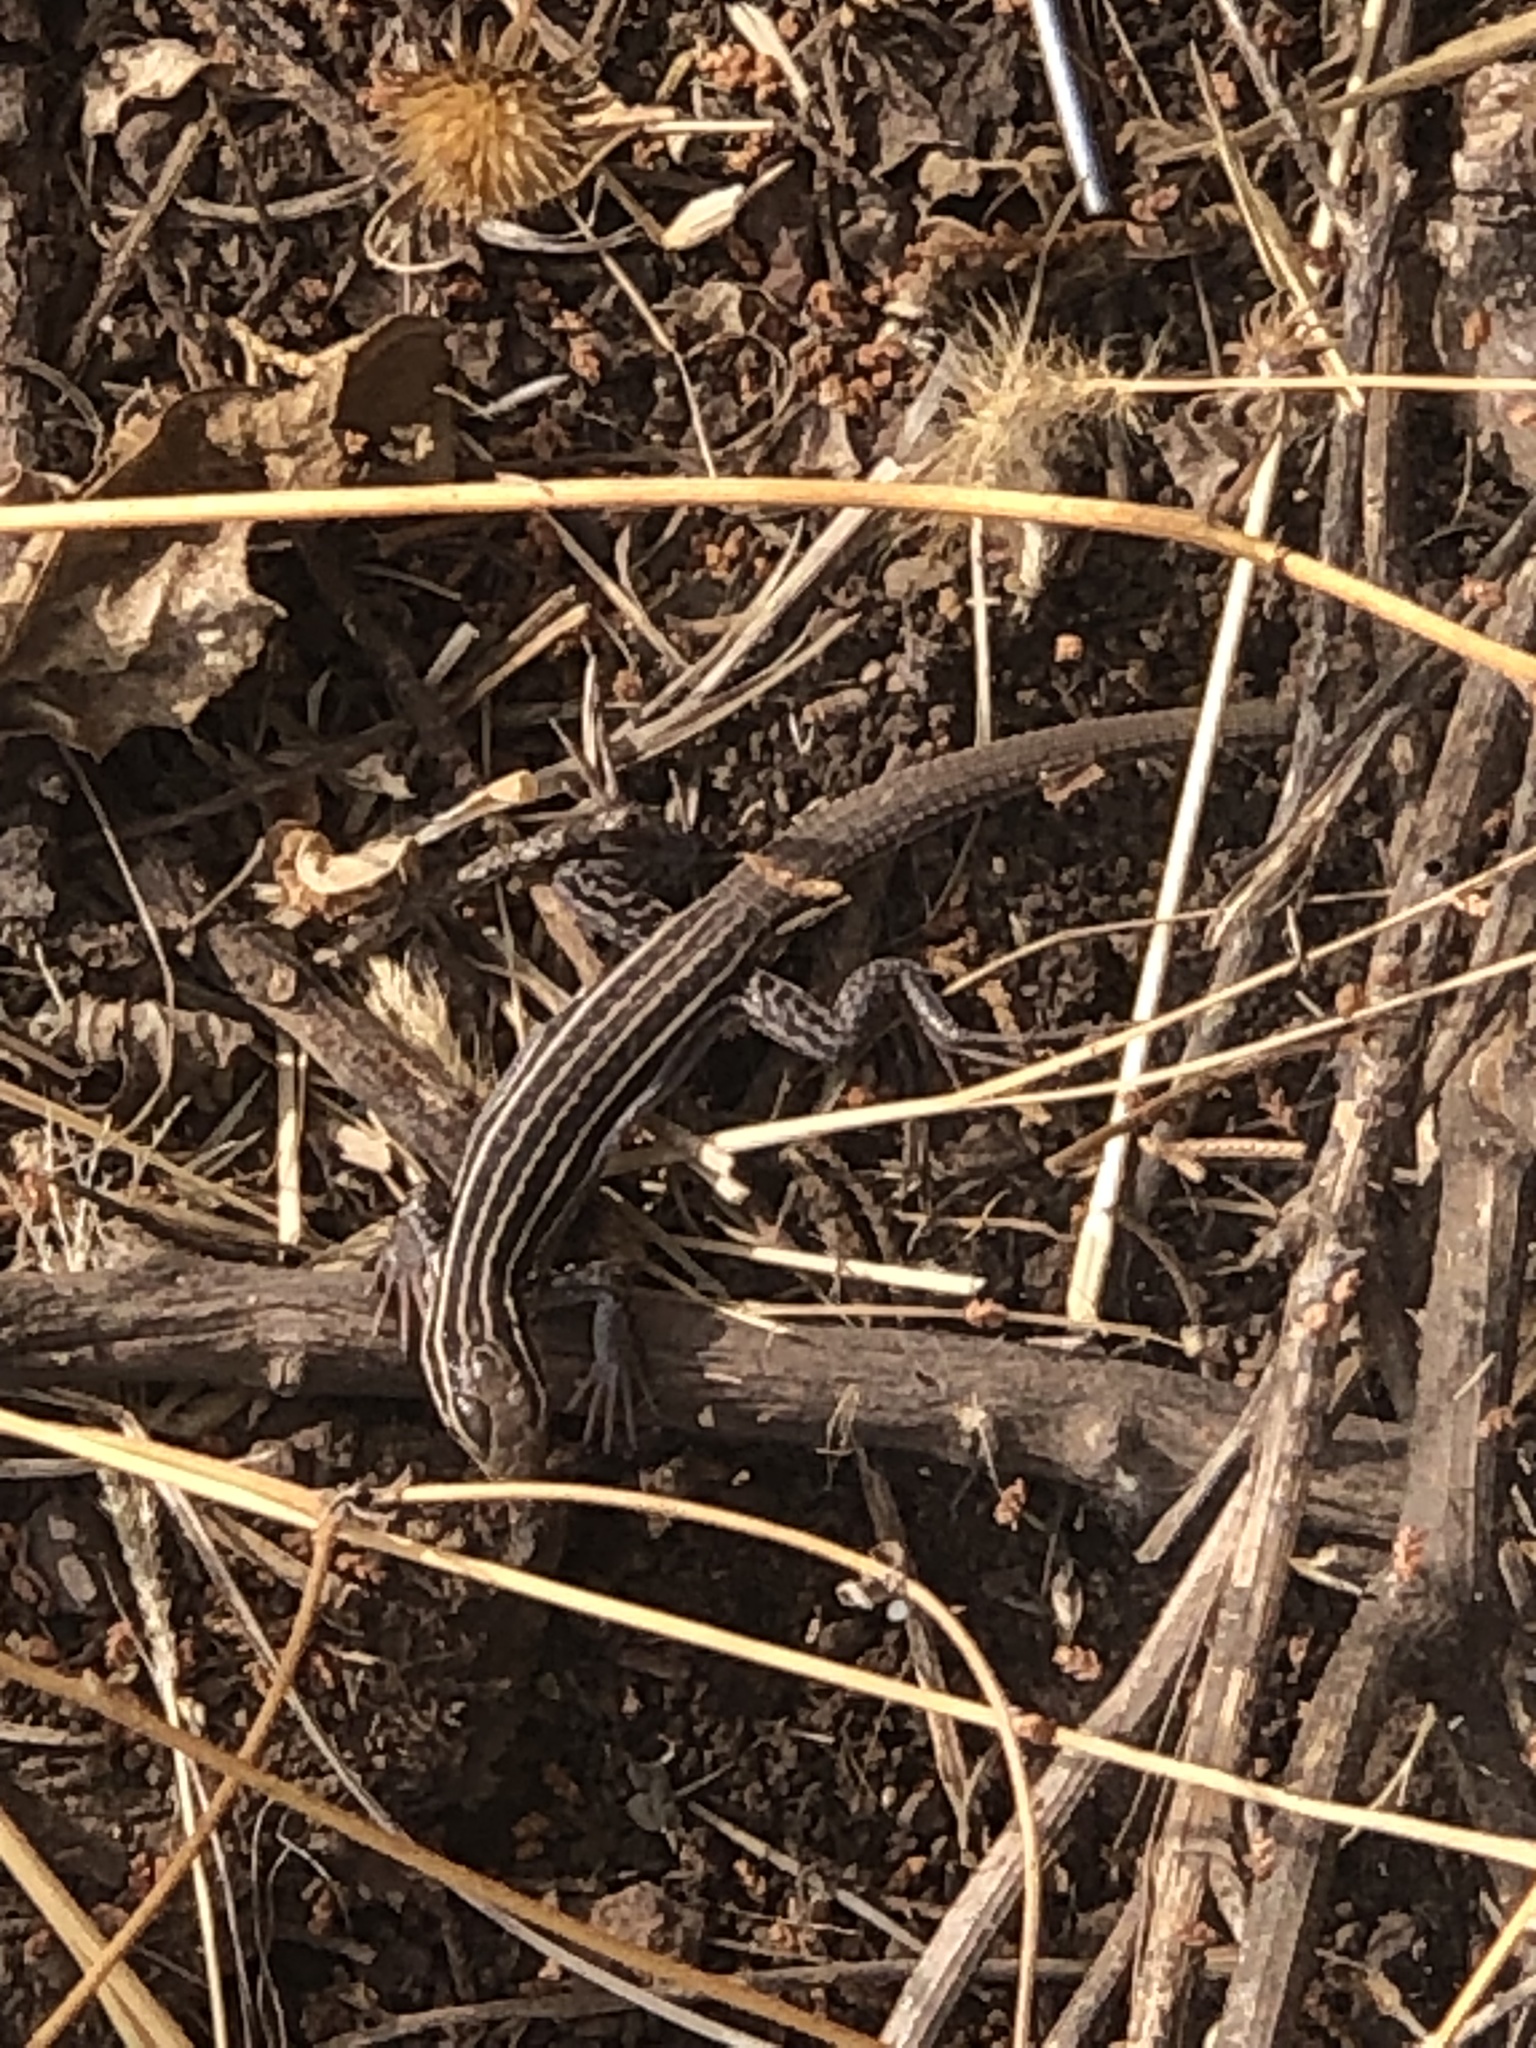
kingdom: Animalia
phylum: Chordata
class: Squamata
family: Teiidae
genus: Aspidoscelis
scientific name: Aspidoscelis exsanguis
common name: Chihuahuan spotted whiptail
